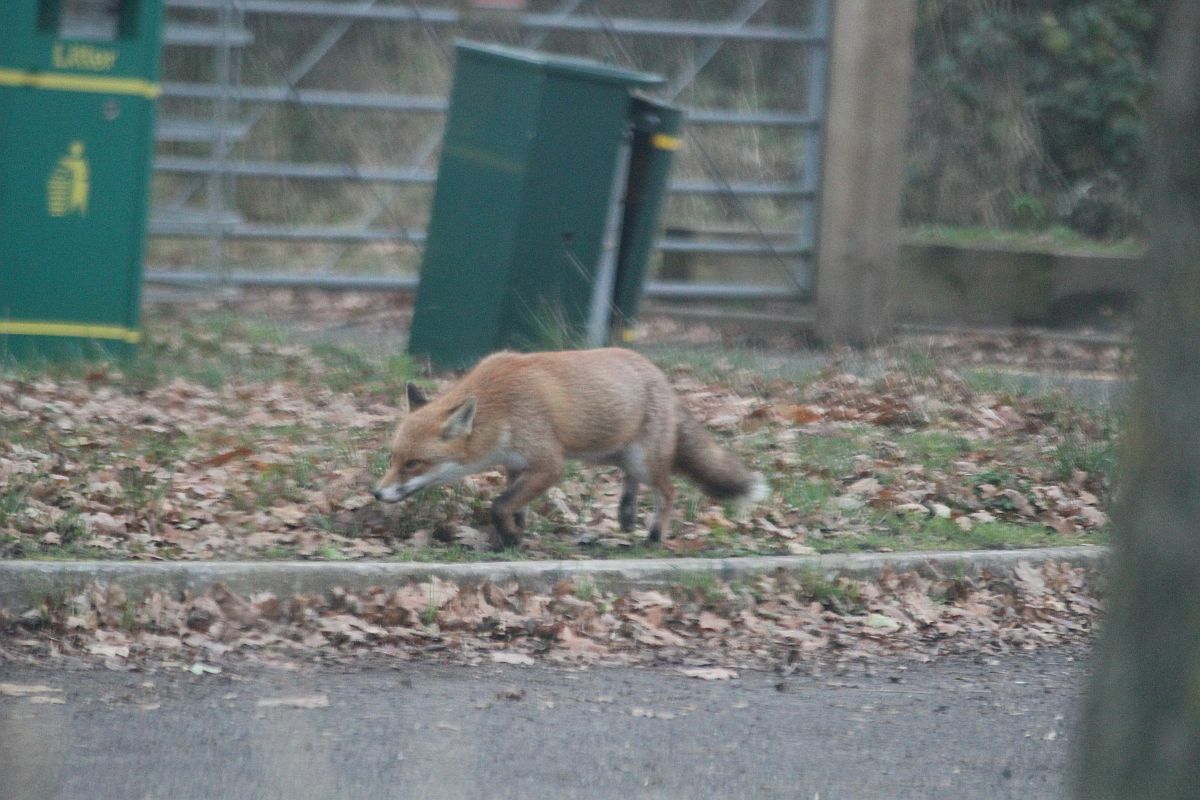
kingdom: Animalia
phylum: Chordata
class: Mammalia
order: Carnivora
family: Canidae
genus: Vulpes
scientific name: Vulpes vulpes
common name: Red fox
